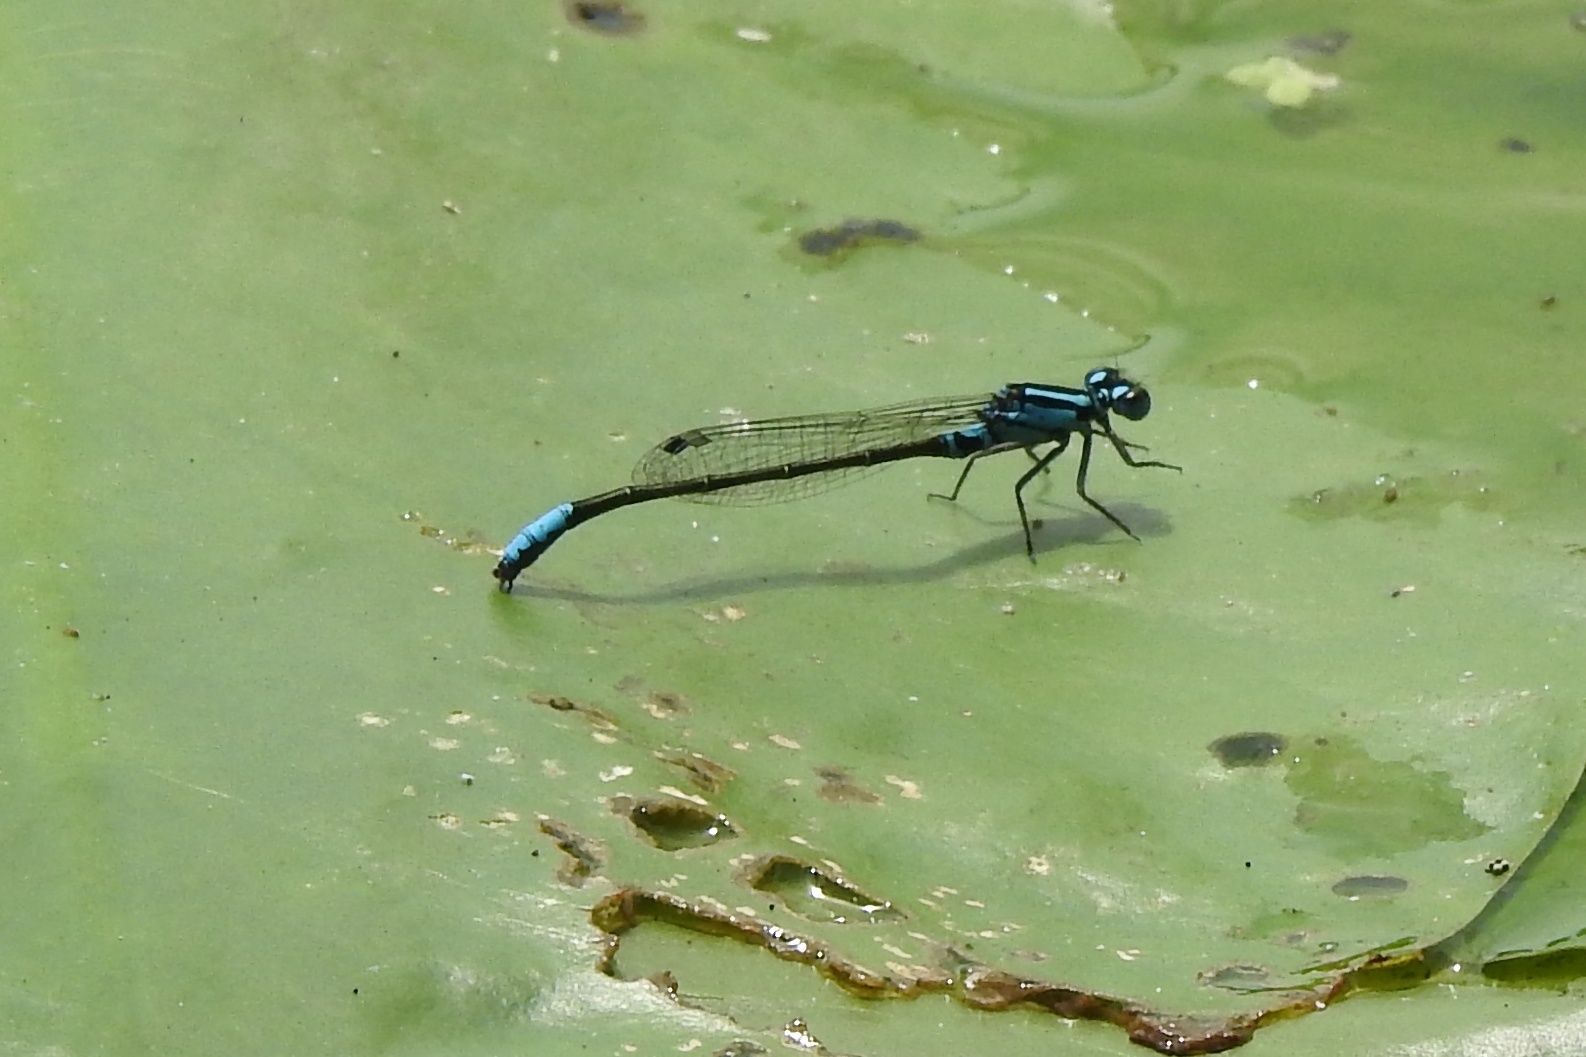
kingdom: Animalia
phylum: Arthropoda
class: Insecta
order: Odonata
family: Coenagrionidae
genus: Ischnura
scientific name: Ischnura kellicotti
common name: Lilypad forktail
